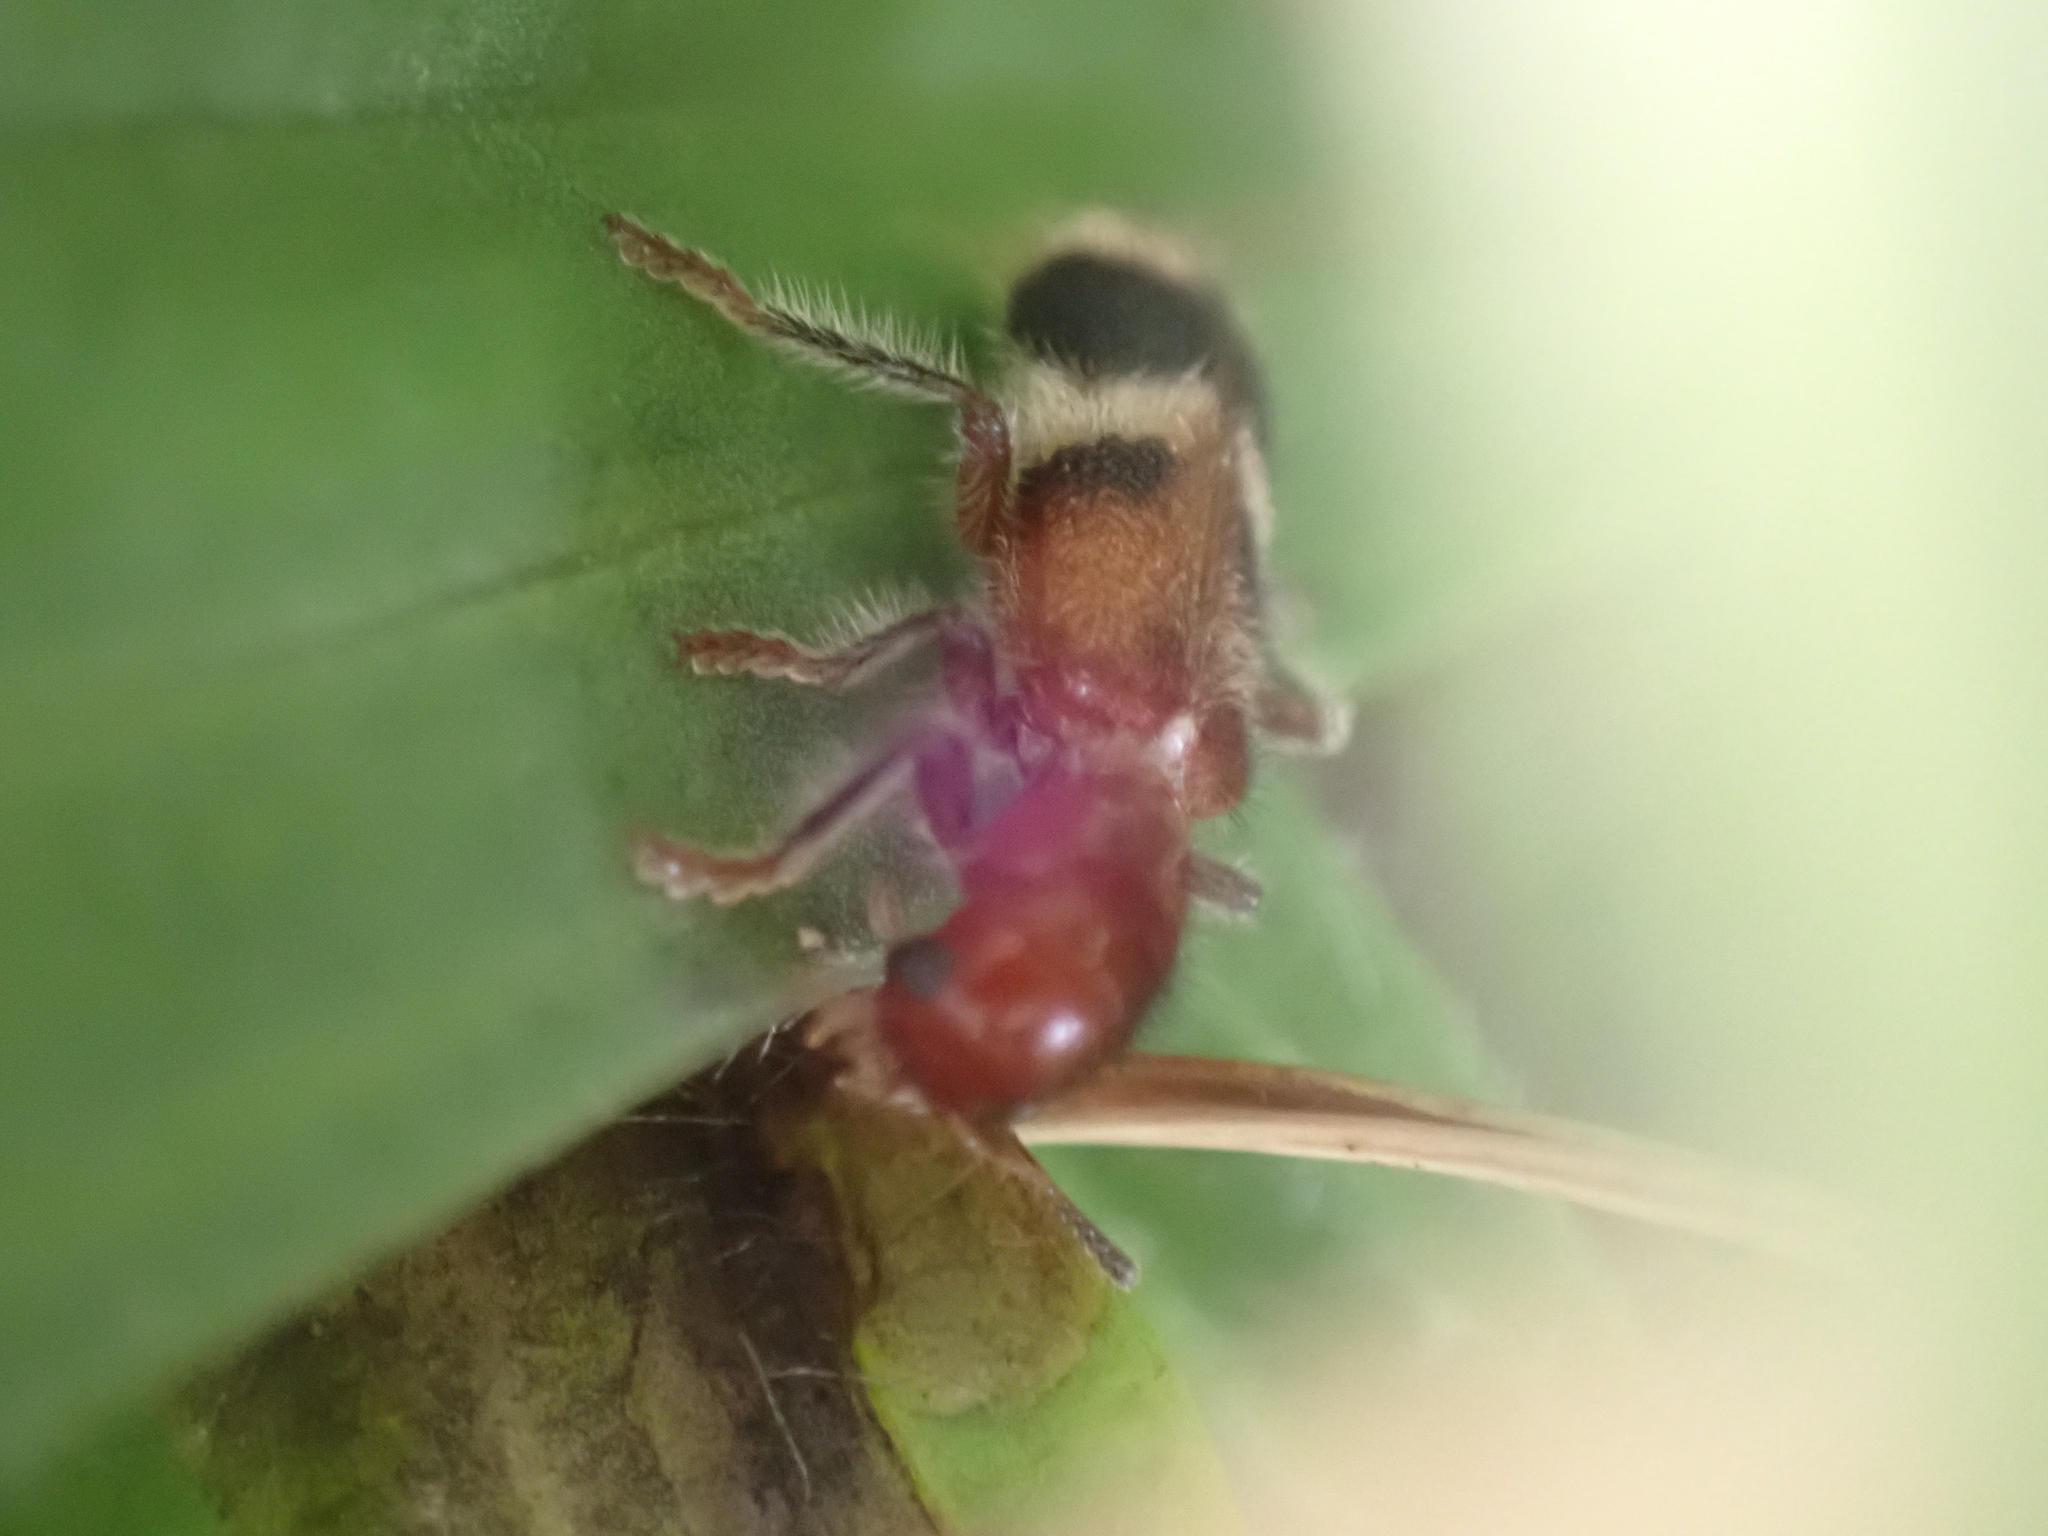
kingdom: Animalia
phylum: Arthropoda
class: Insecta
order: Coleoptera
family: Cleridae
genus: Enoclerus
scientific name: Enoclerus rosmarus
